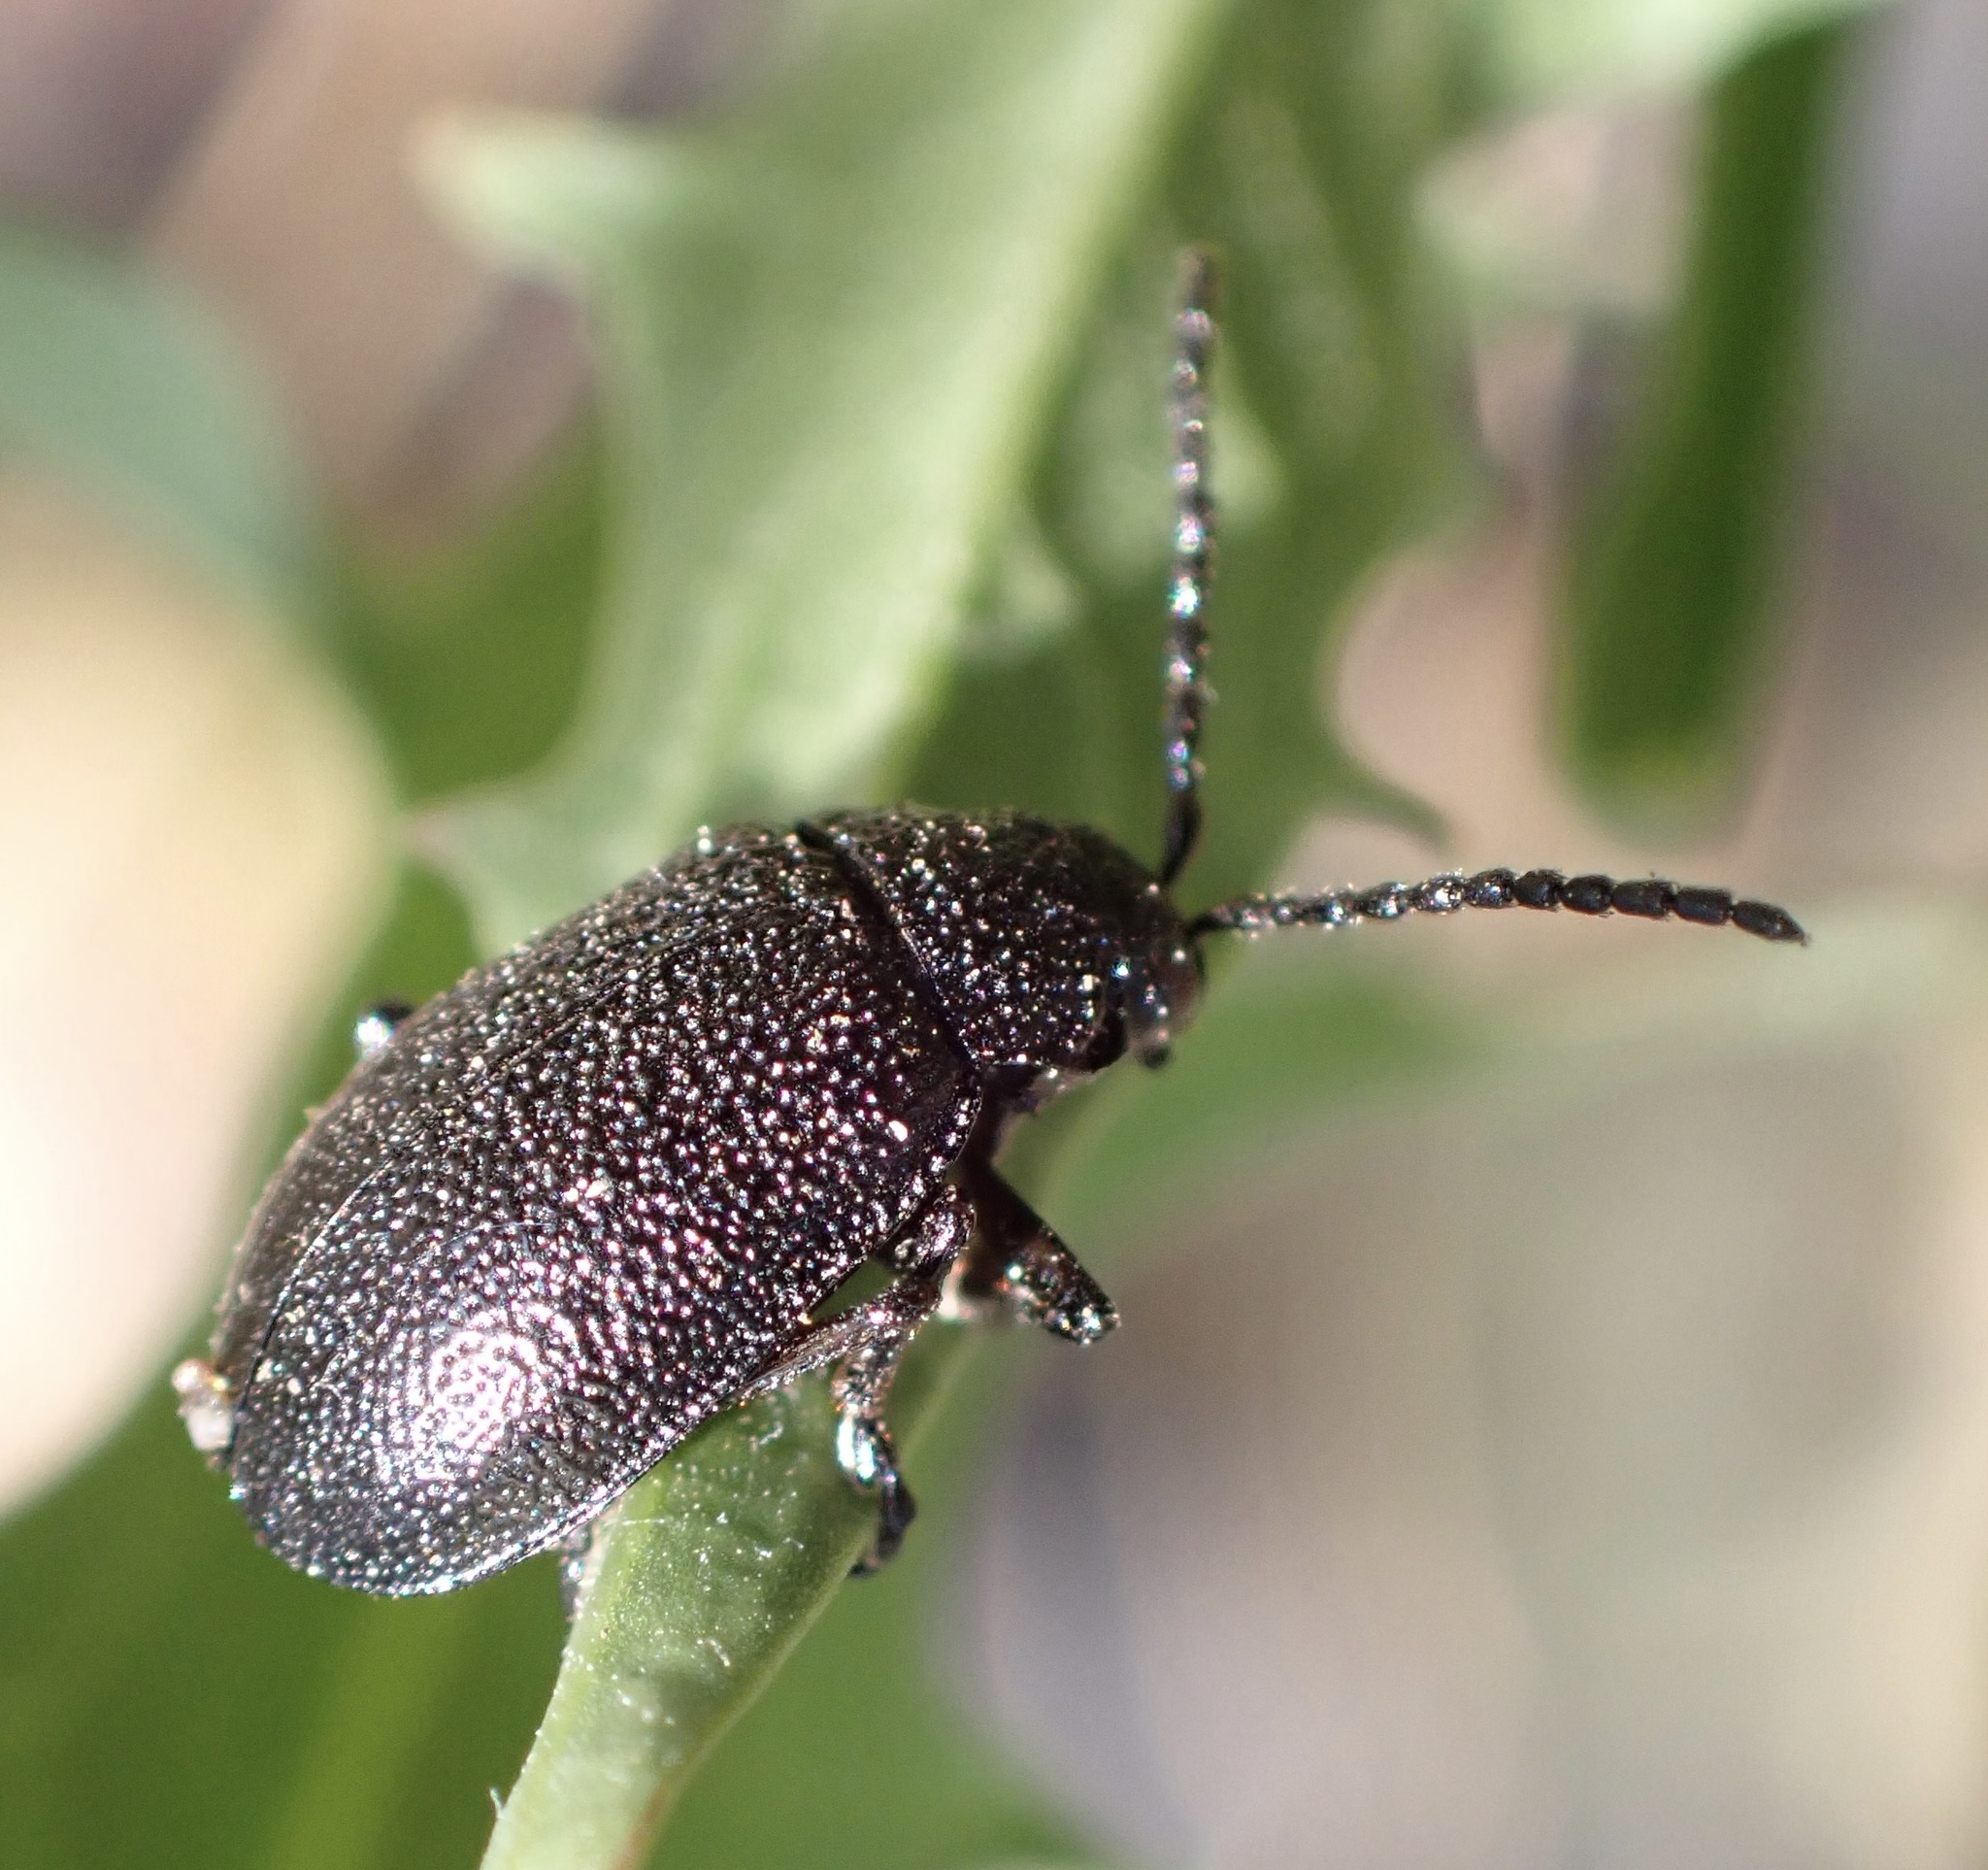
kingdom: Animalia
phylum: Arthropoda
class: Insecta
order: Coleoptera
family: Chrysomelidae
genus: Galeruca
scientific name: Galeruca tanaceti
